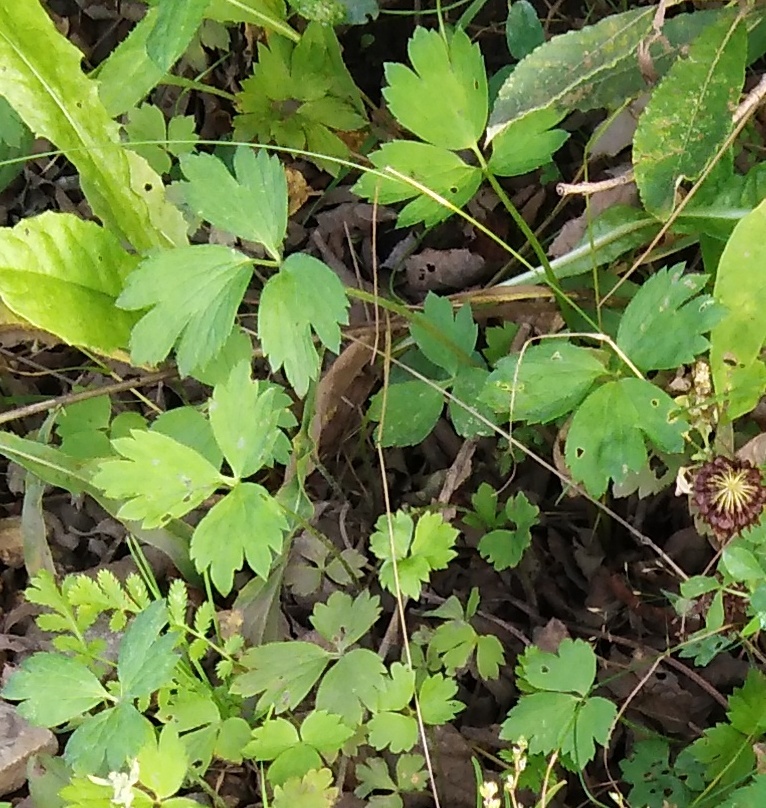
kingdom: Plantae
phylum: Tracheophyta
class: Magnoliopsida
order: Ranunculales
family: Ranunculaceae
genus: Ranunculus
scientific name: Ranunculus repens
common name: Creeping buttercup
